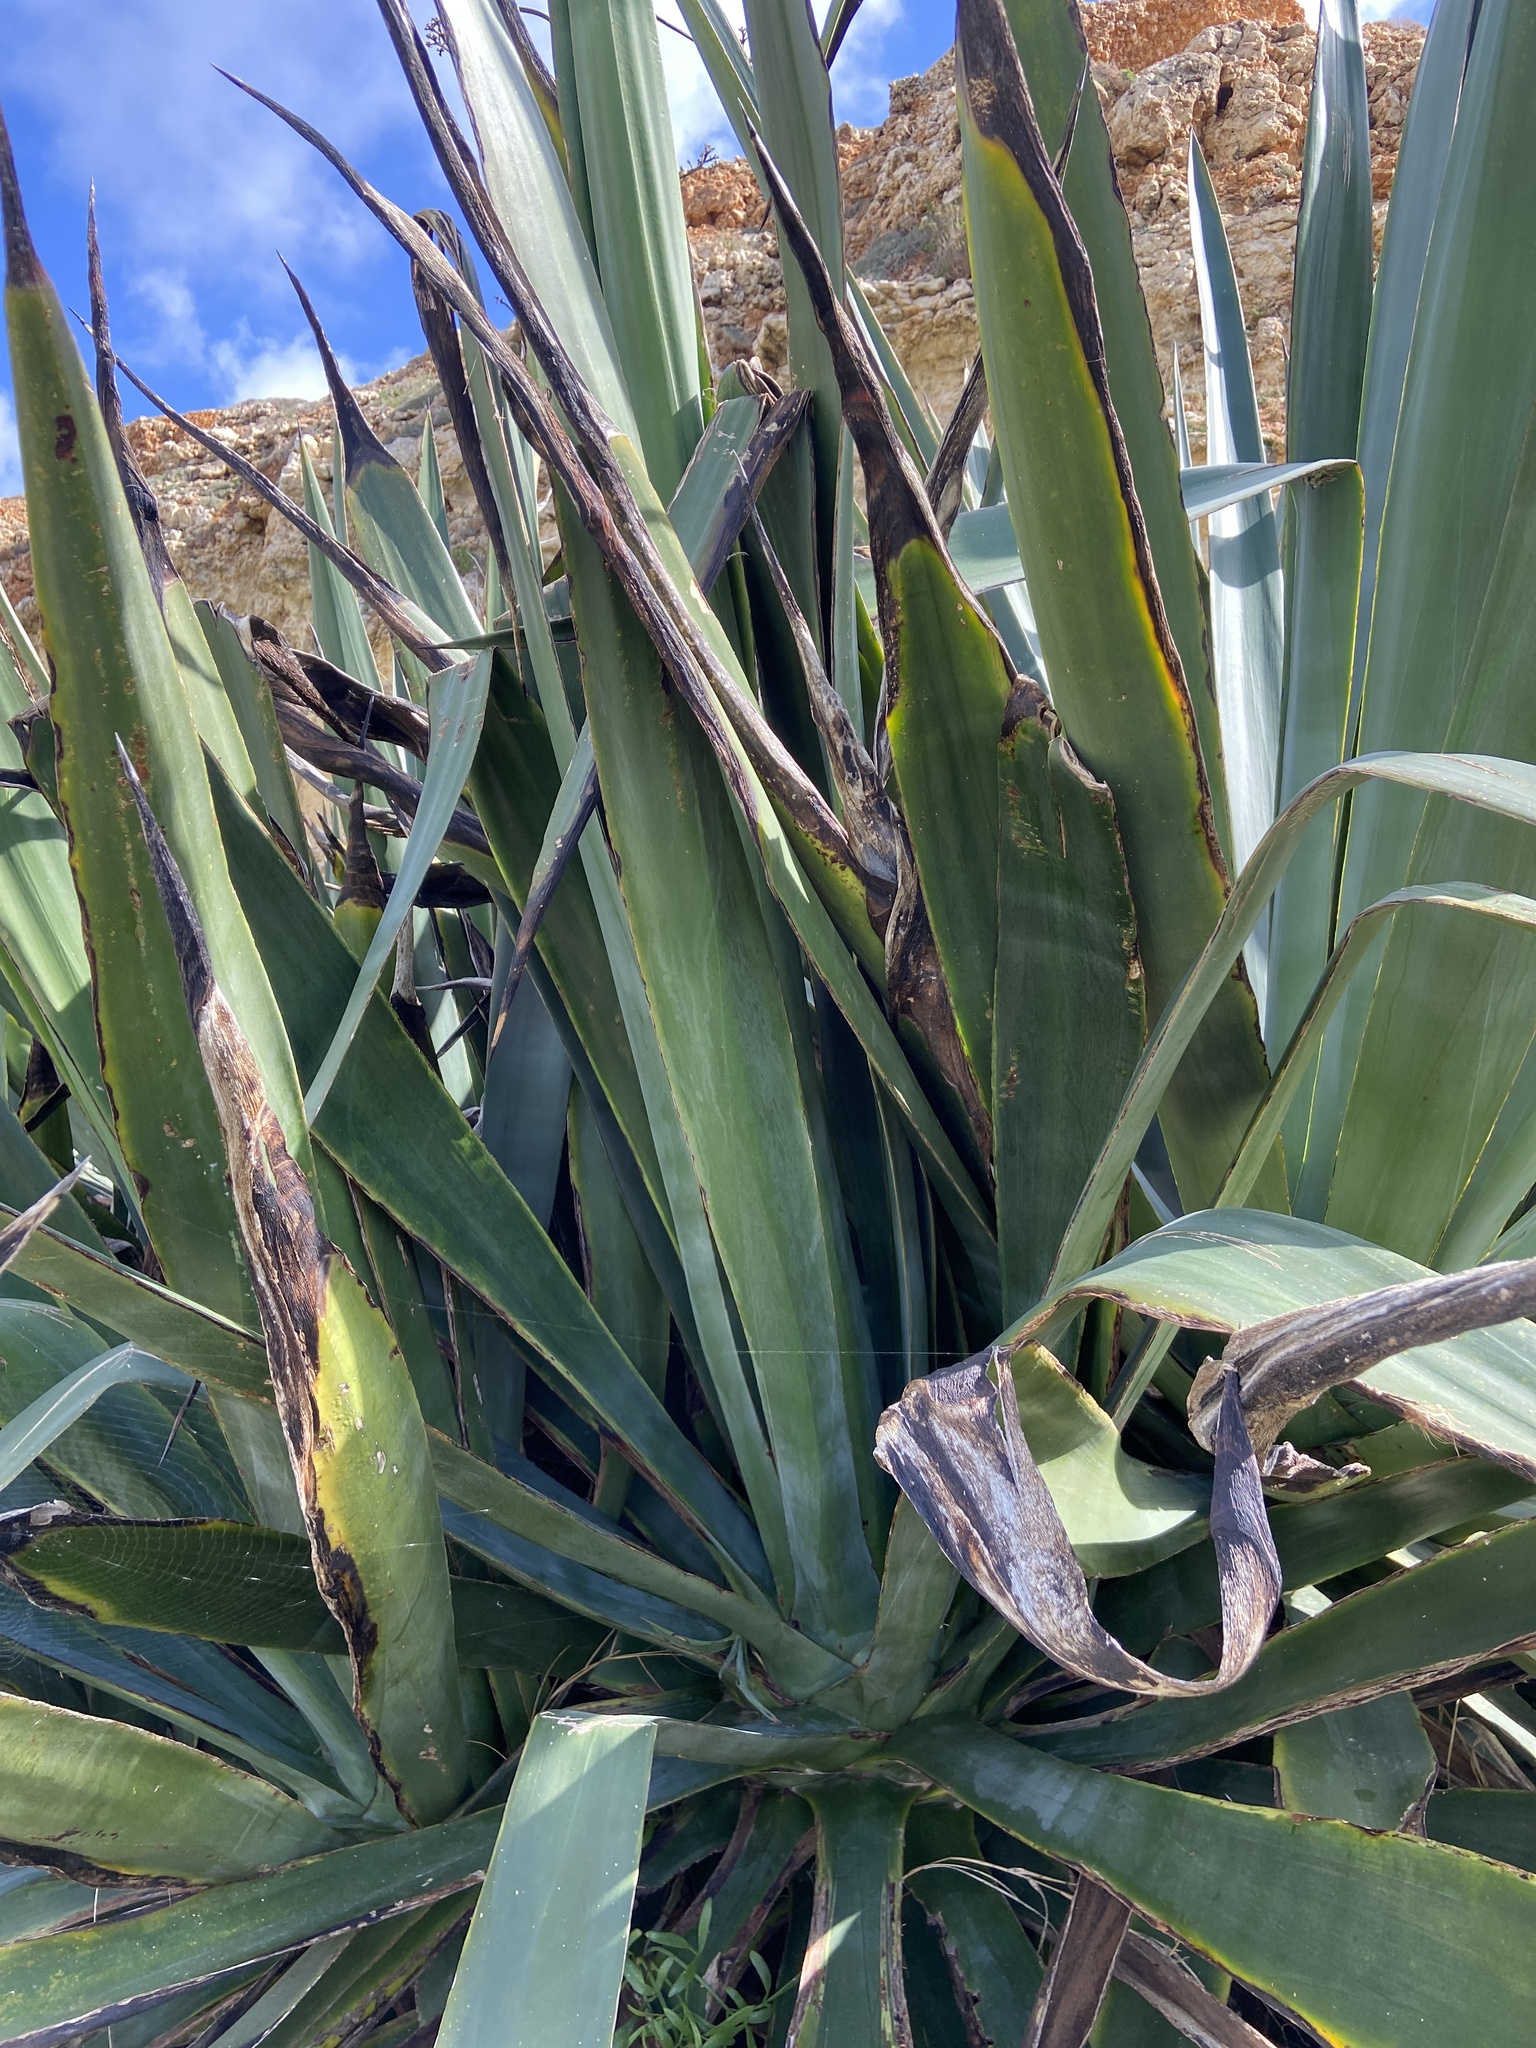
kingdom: Plantae
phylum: Tracheophyta
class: Liliopsida
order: Asparagales
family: Asparagaceae
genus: Agave
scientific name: Agave sisalana
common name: Sisal hemp
